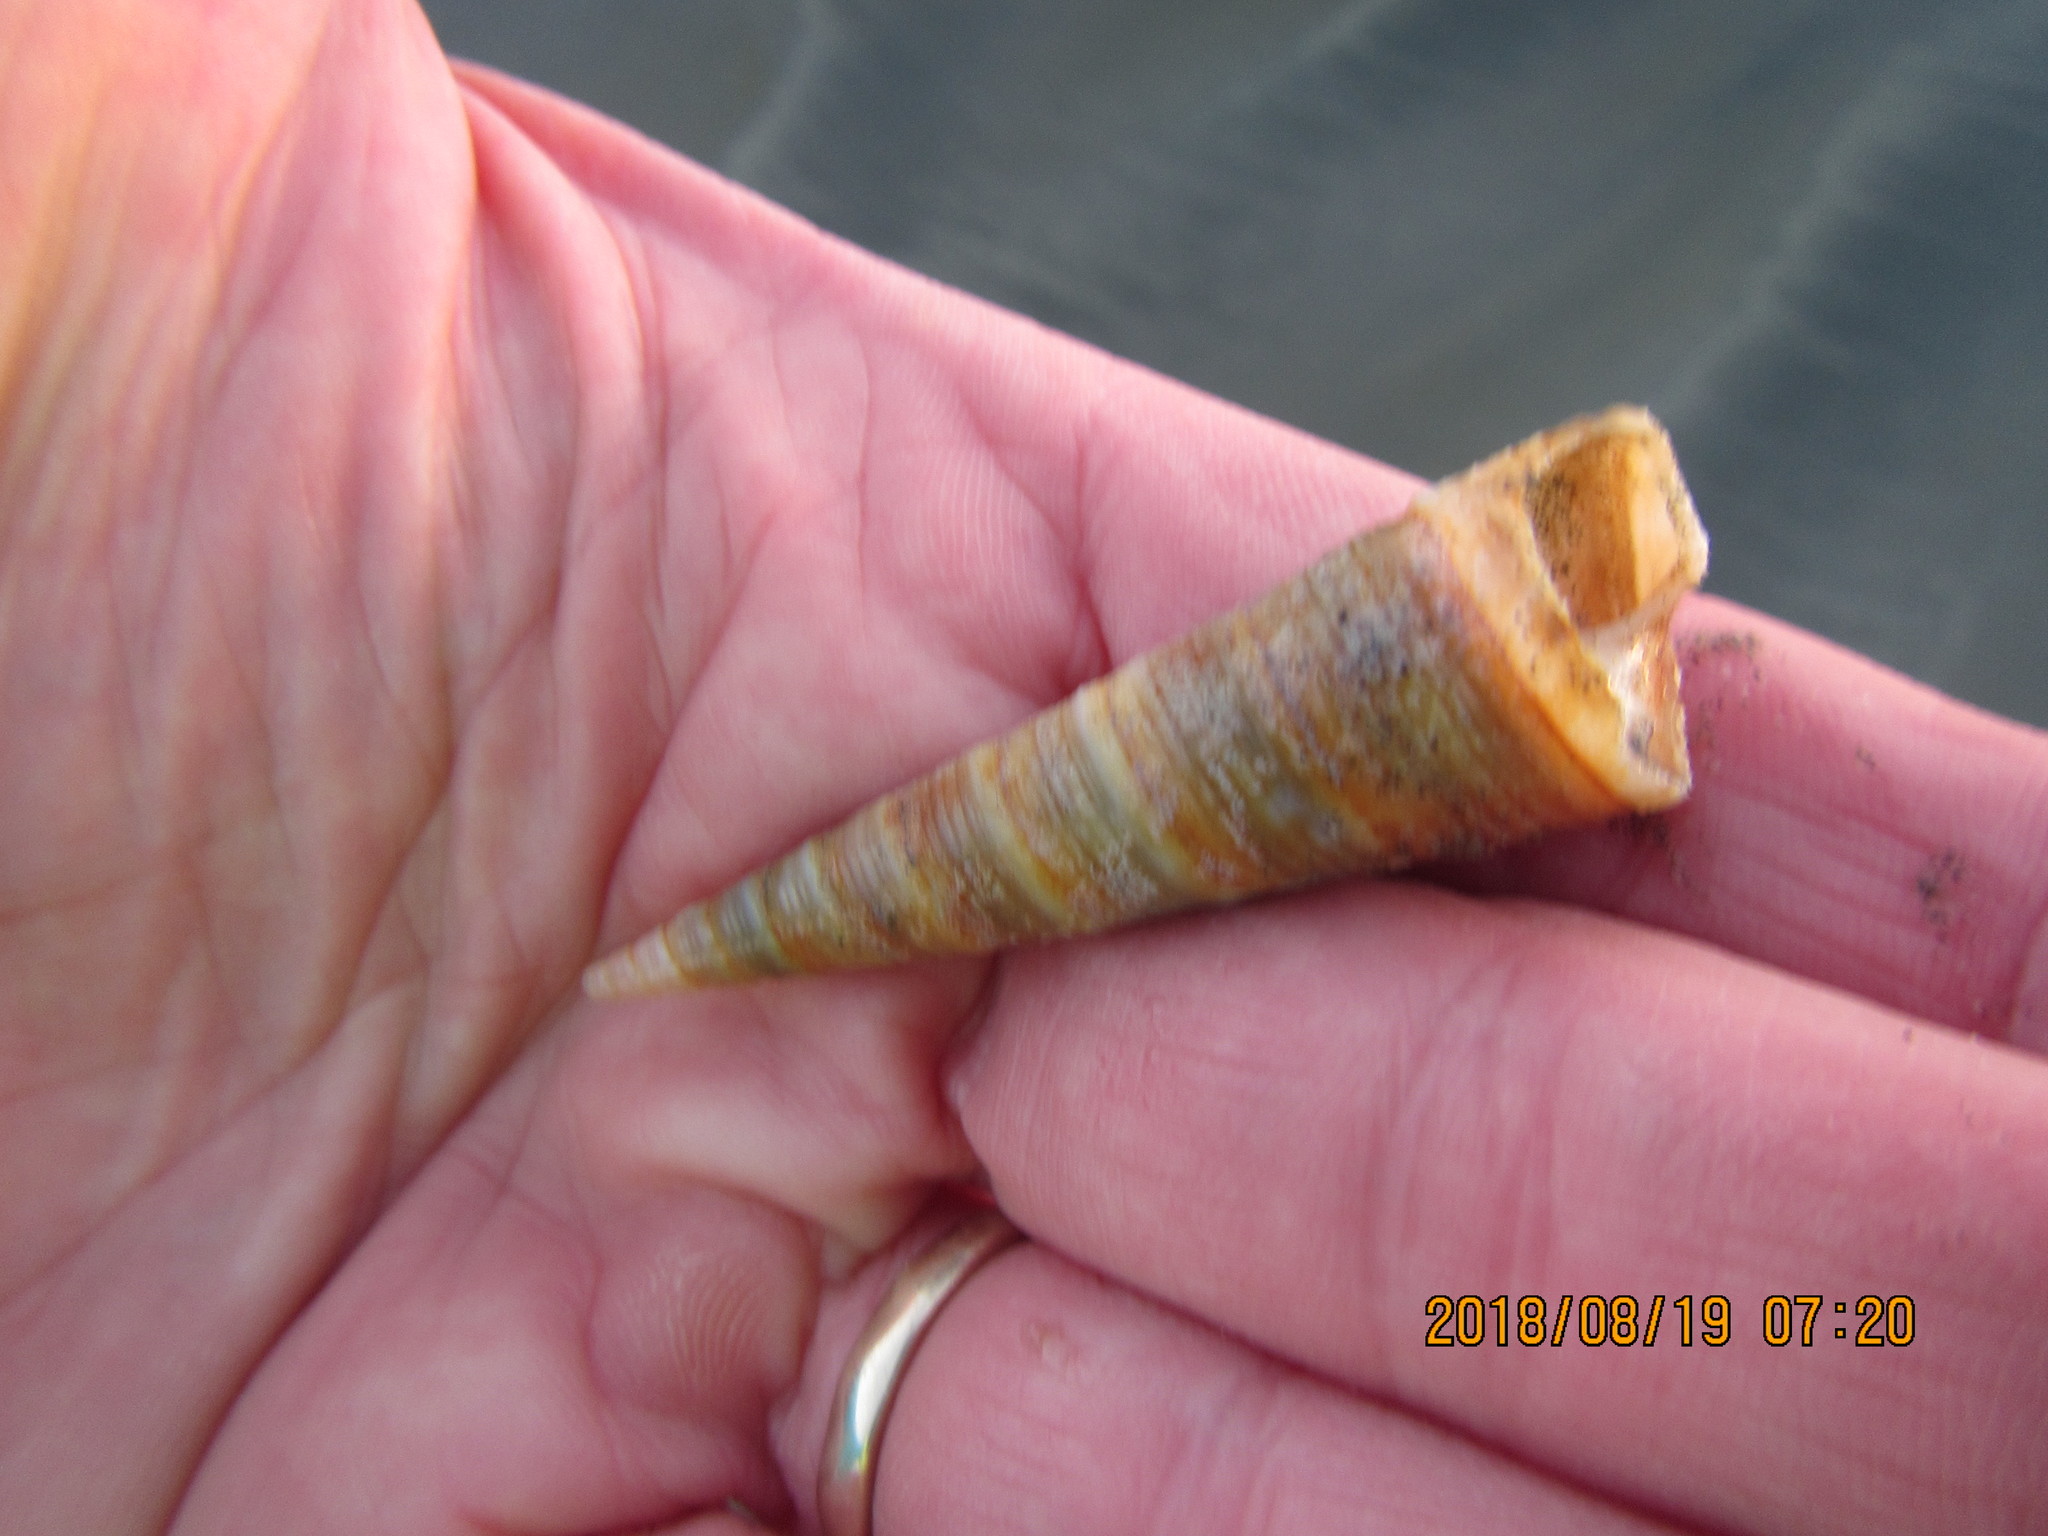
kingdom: Animalia
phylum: Mollusca
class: Gastropoda
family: Turritellidae
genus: Zeacolpus
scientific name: Zeacolpus vittatus
